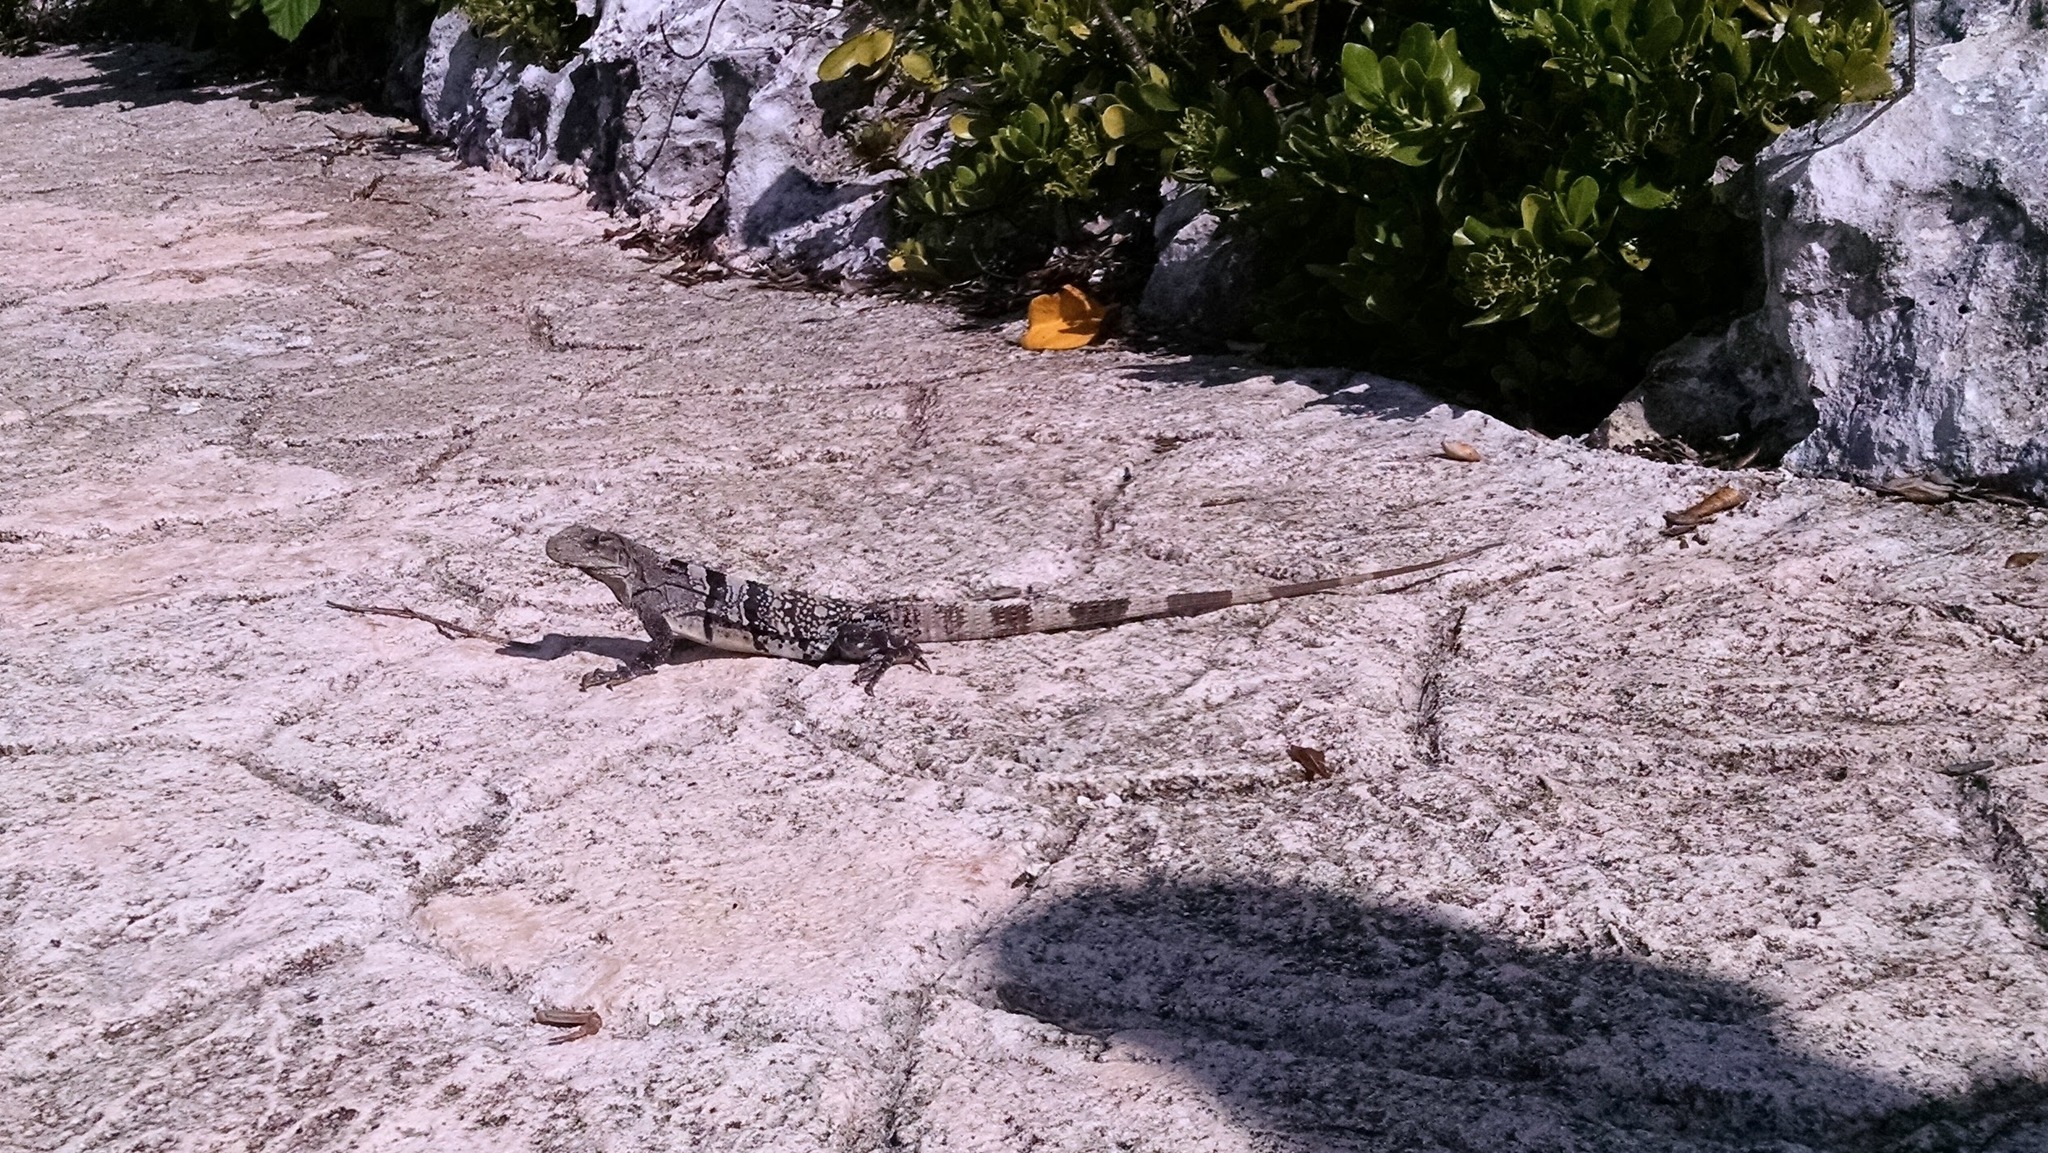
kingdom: Animalia
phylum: Chordata
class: Squamata
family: Iguanidae
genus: Ctenosaura
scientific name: Ctenosaura similis
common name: Black spiny-tailed iguana
